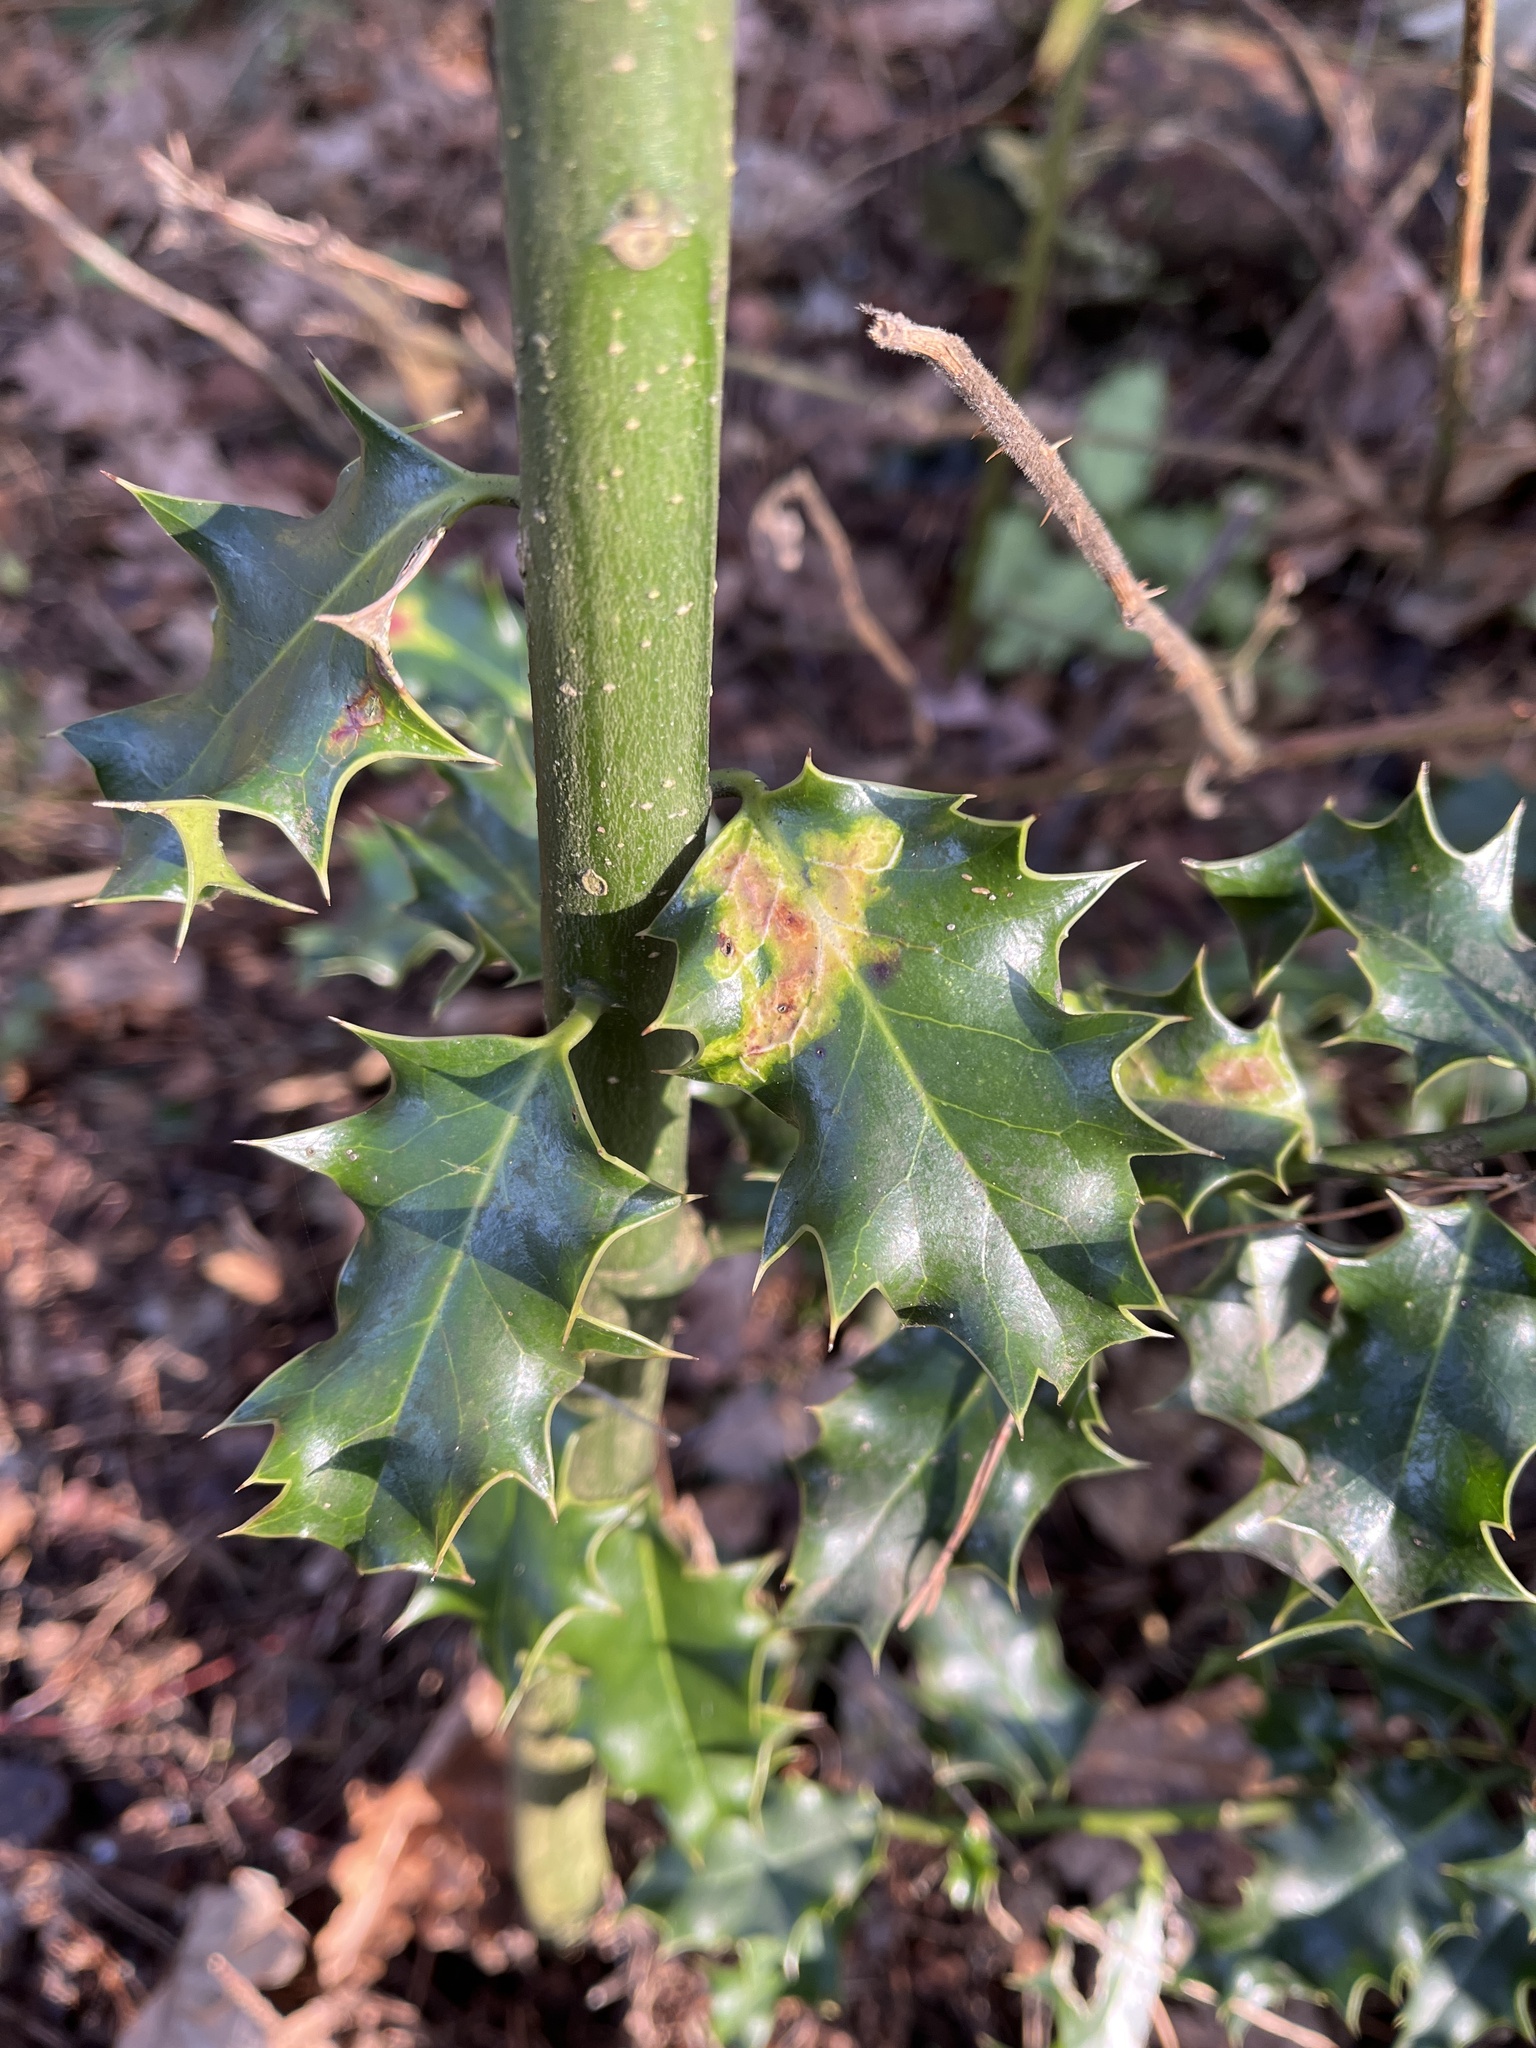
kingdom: Animalia
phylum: Arthropoda
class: Insecta
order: Diptera
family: Agromyzidae
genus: Phytomyza
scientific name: Phytomyza ilicis
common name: Holly leafminer
